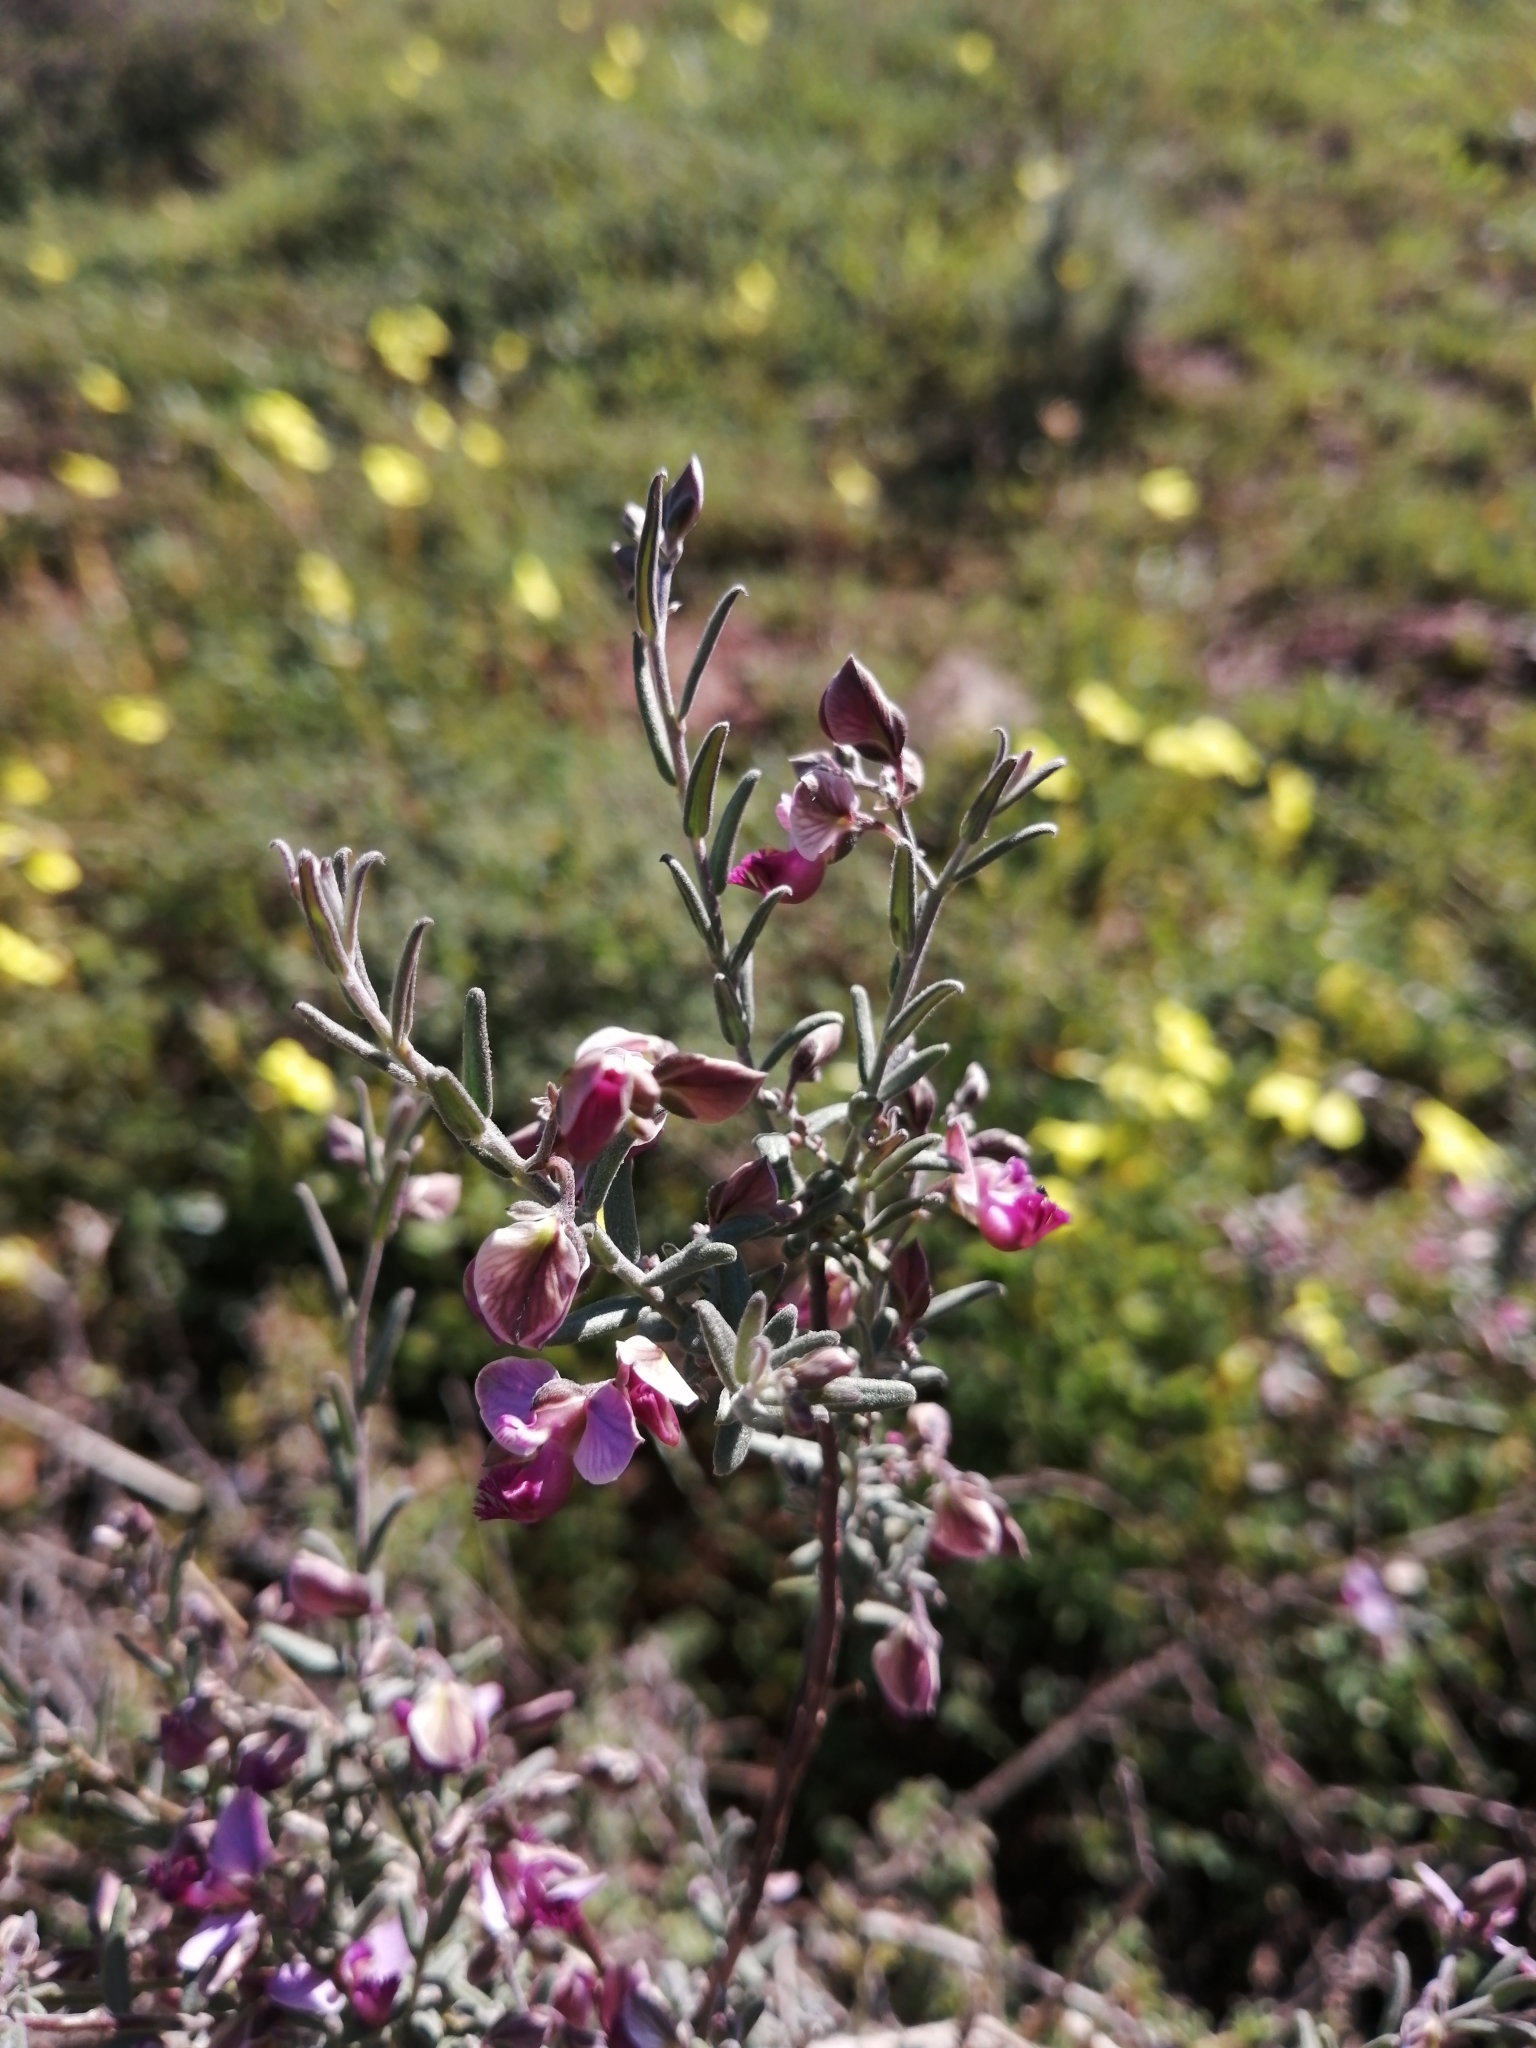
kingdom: Plantae
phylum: Tracheophyta
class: Magnoliopsida
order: Fabales
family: Polygalaceae
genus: Polygala
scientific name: Polygala scabra
